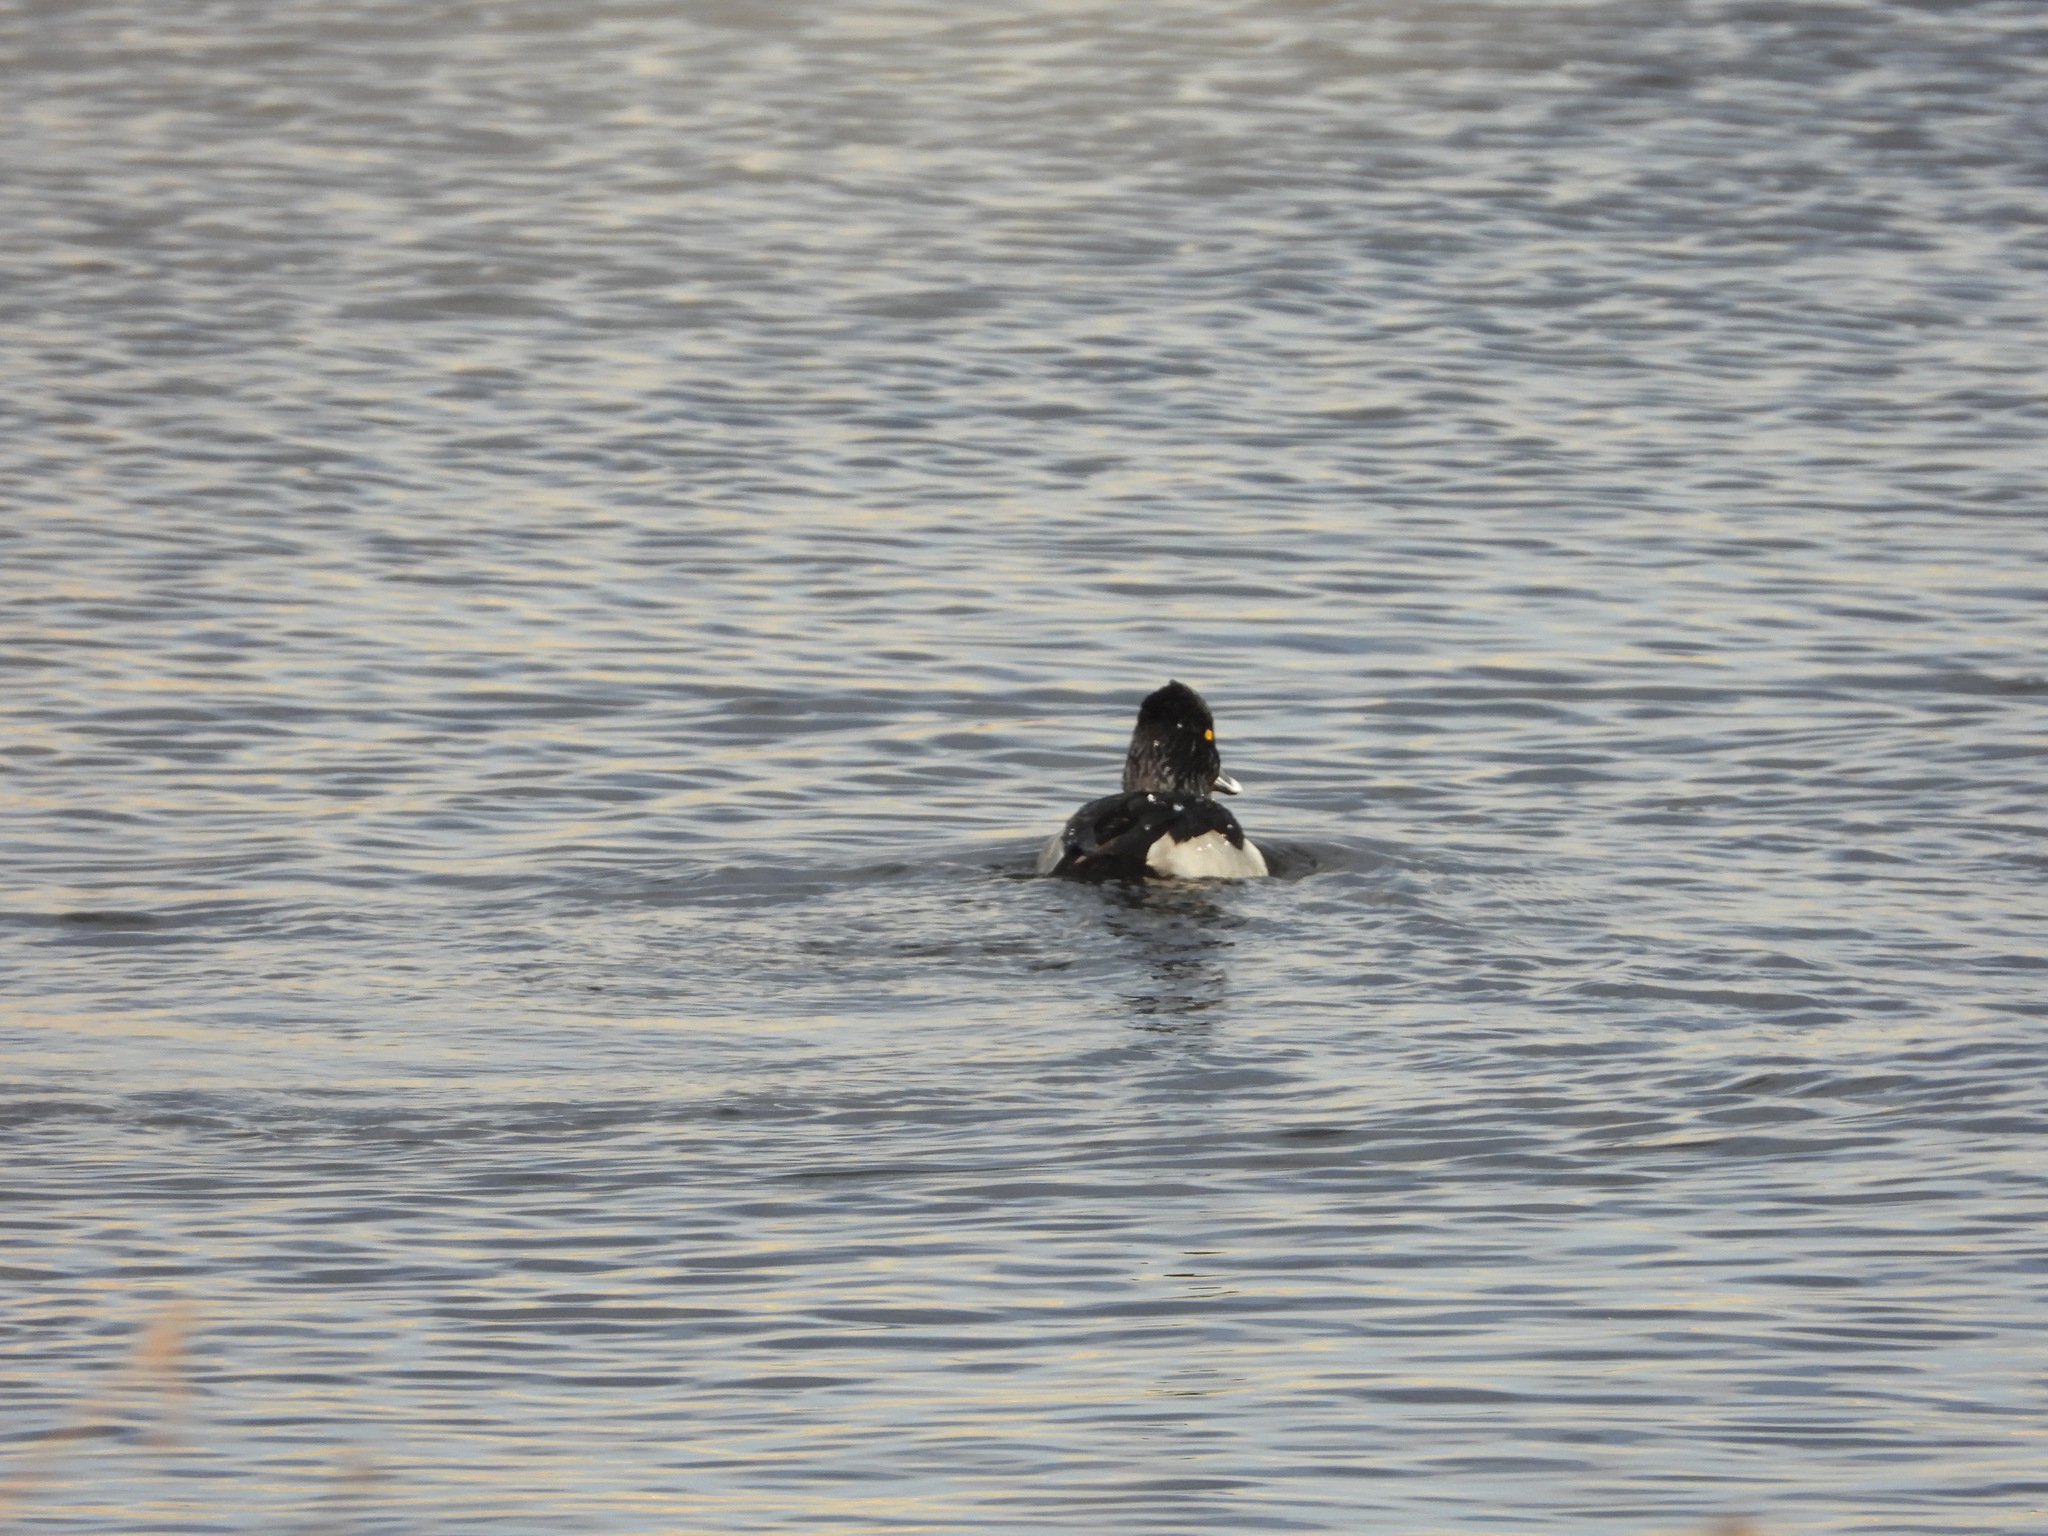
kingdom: Animalia
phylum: Chordata
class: Aves
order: Anseriformes
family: Anatidae
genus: Aythya
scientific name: Aythya collaris
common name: Ring-necked duck
